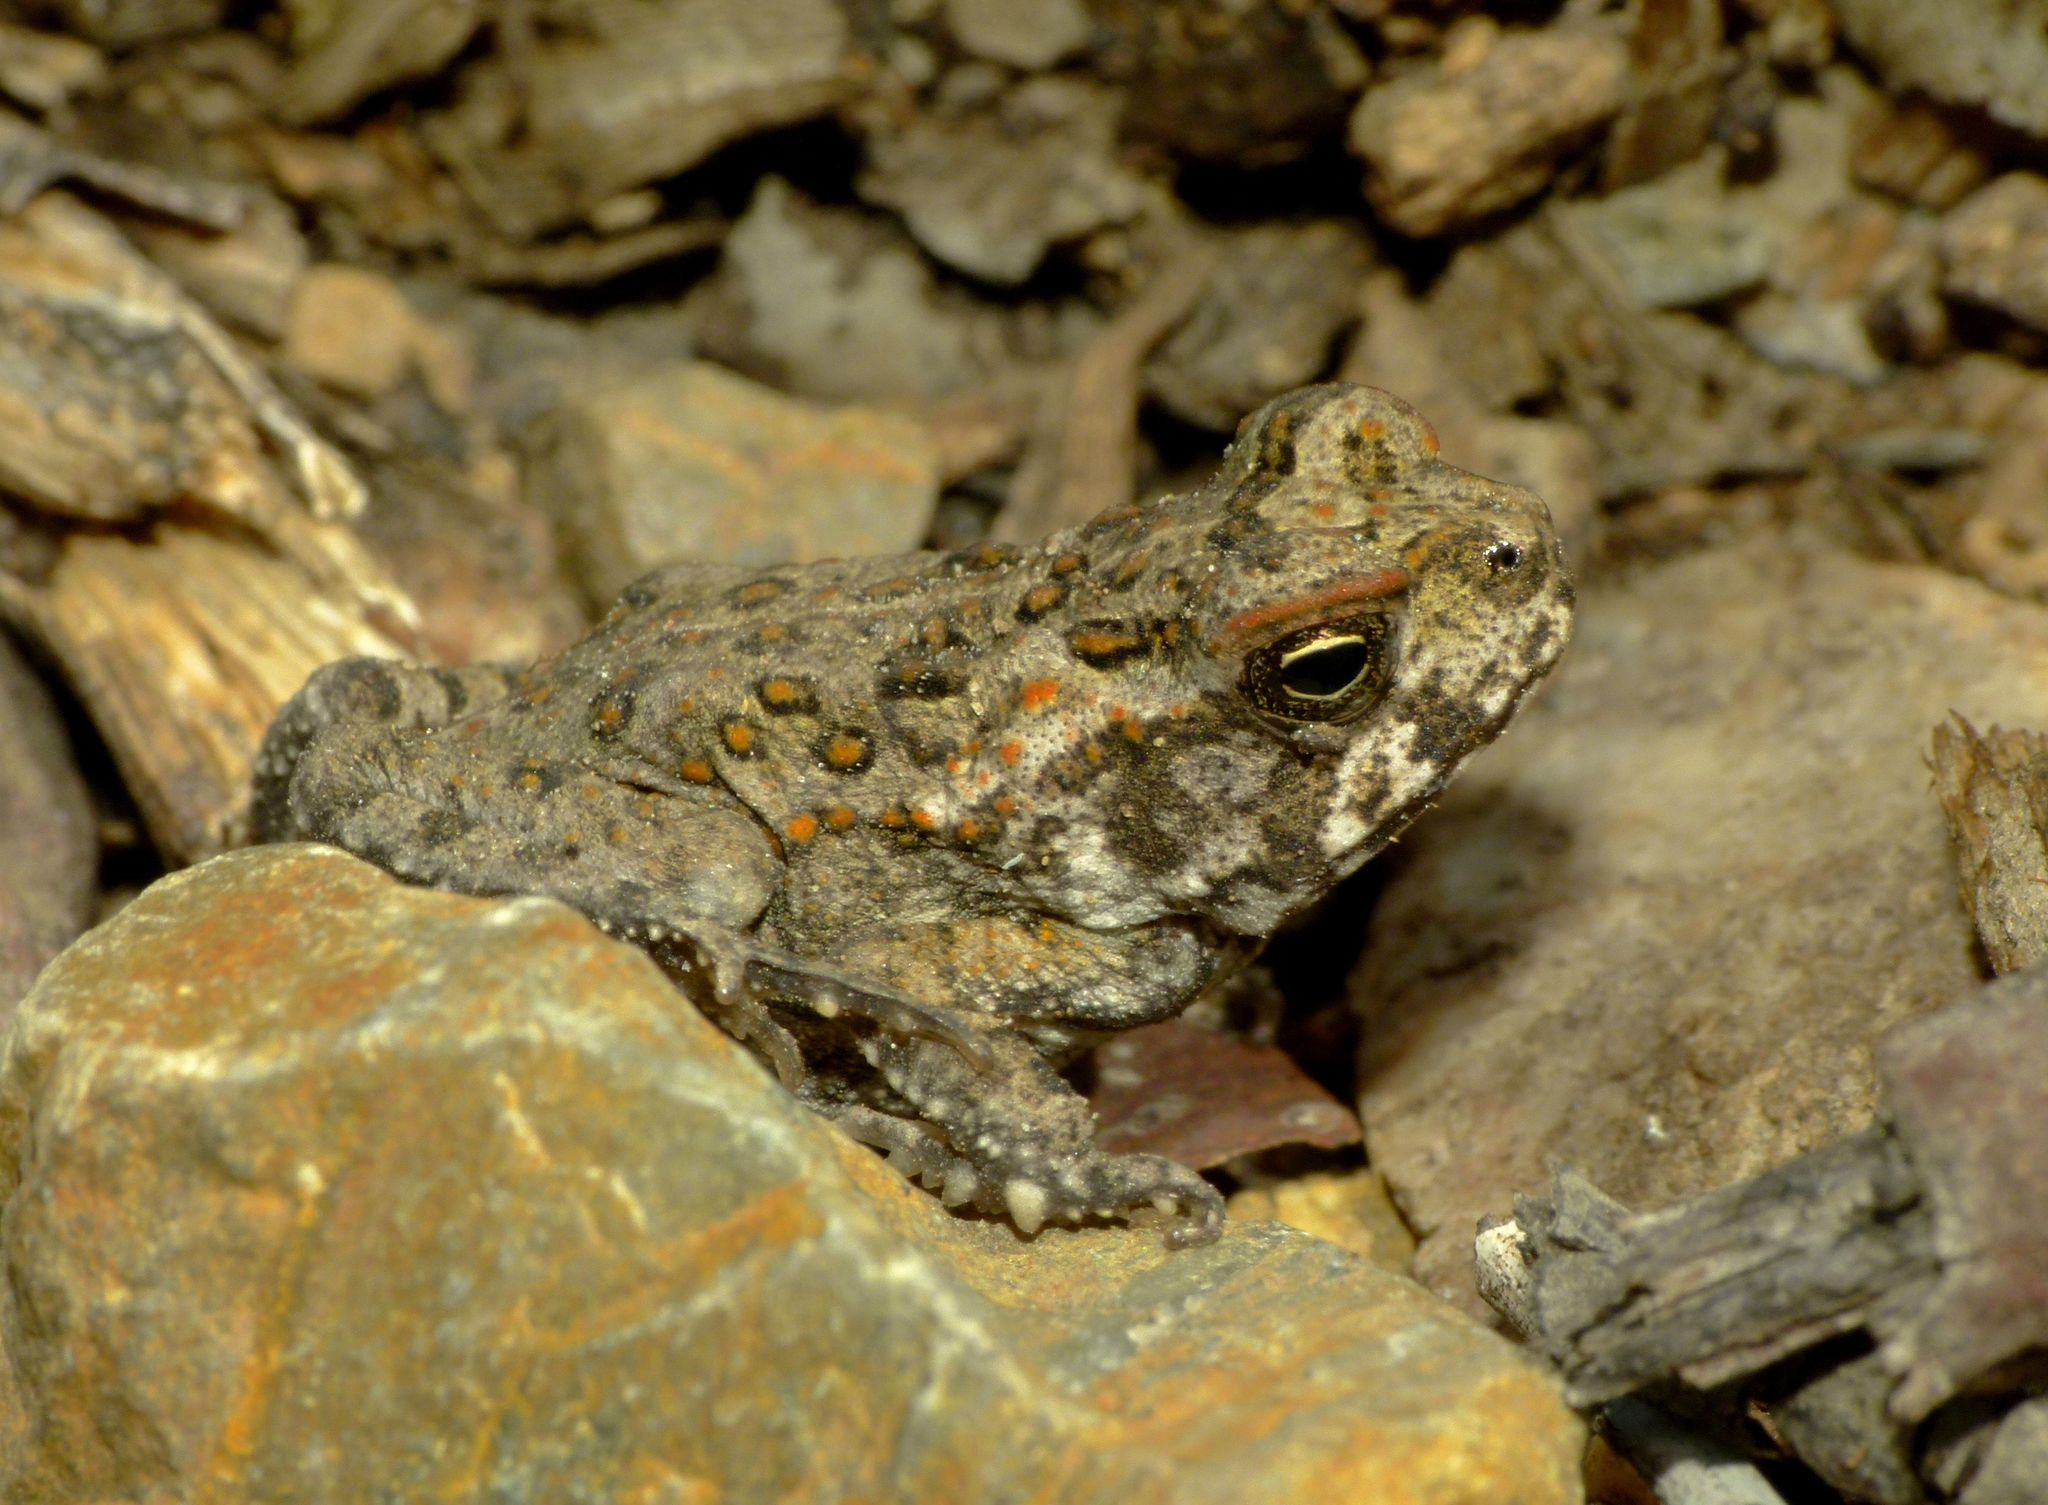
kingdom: Animalia
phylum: Chordata
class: Amphibia
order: Anura
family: Bufonidae
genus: Rhinella
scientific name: Rhinella marina
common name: Cane toad
